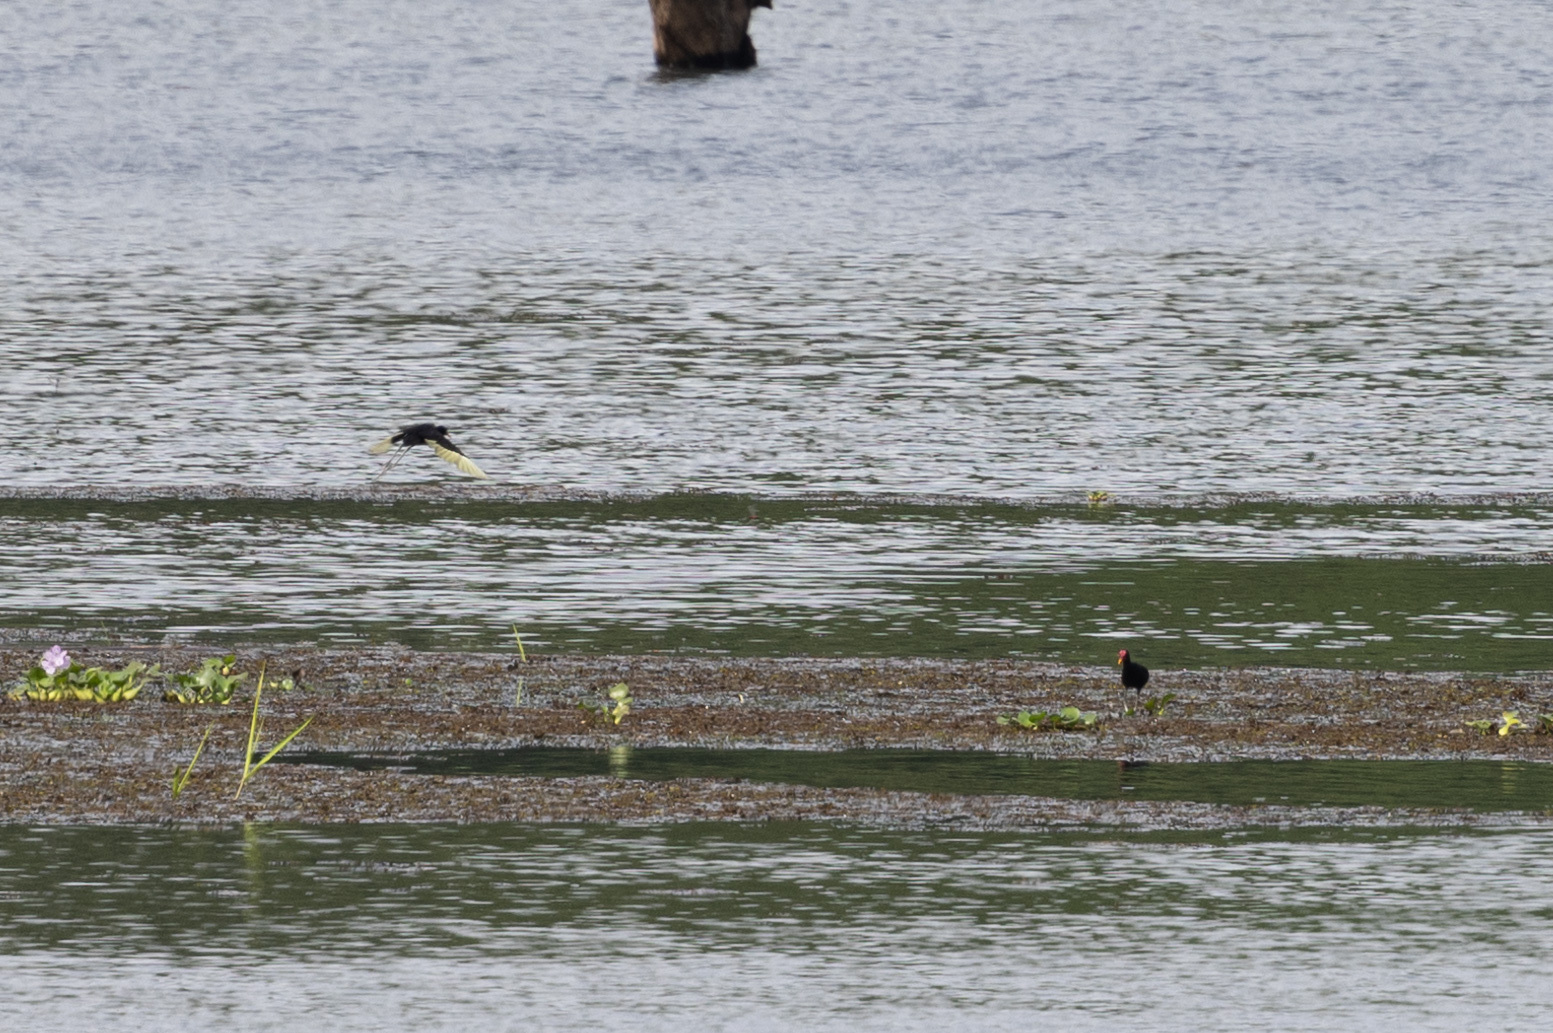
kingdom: Animalia
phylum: Chordata
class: Aves
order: Charadriiformes
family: Jacanidae
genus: Jacana
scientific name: Jacana jacana
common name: Wattled jacana
